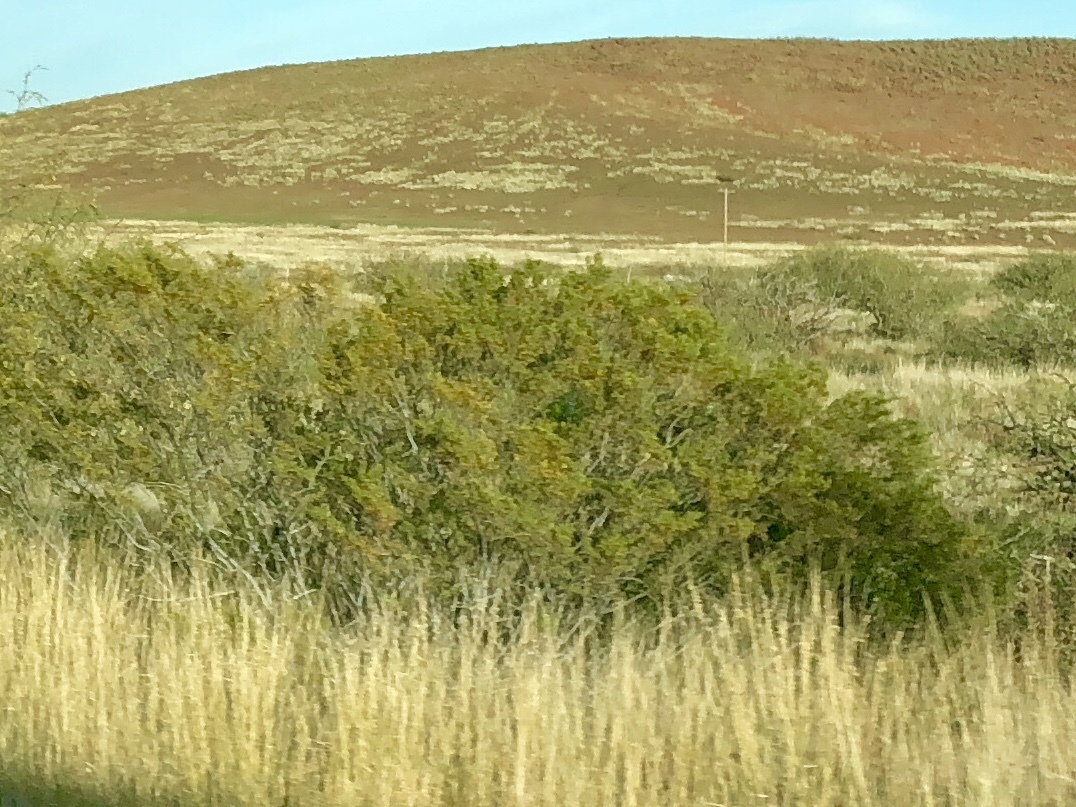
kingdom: Plantae
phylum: Tracheophyta
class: Magnoliopsida
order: Zygophyllales
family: Zygophyllaceae
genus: Larrea
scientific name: Larrea tridentata
